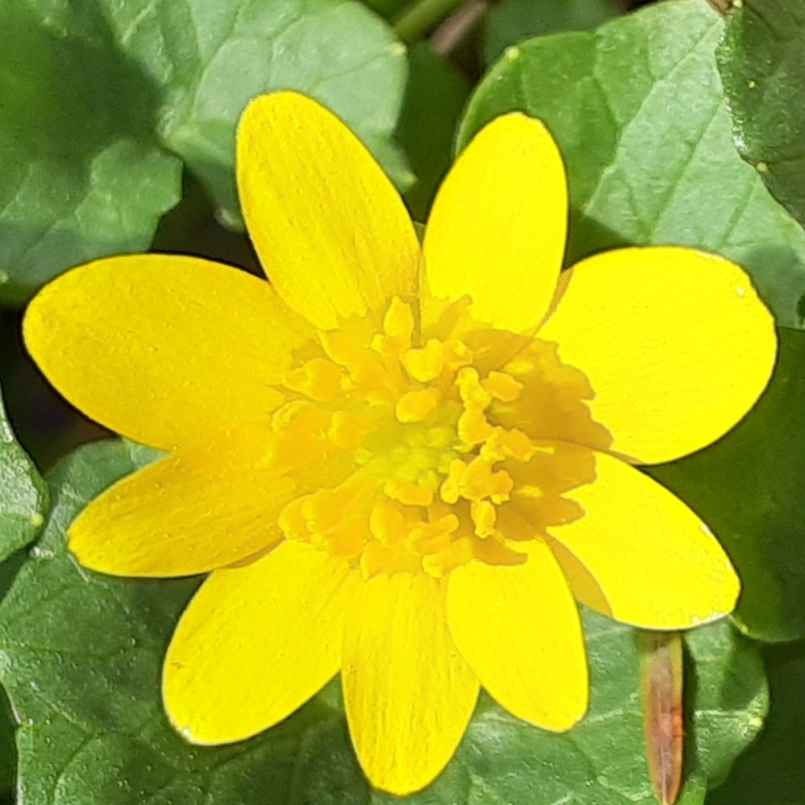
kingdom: Plantae
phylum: Tracheophyta
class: Magnoliopsida
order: Ranunculales
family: Ranunculaceae
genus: Ficaria
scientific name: Ficaria verna
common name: Lesser celandine
